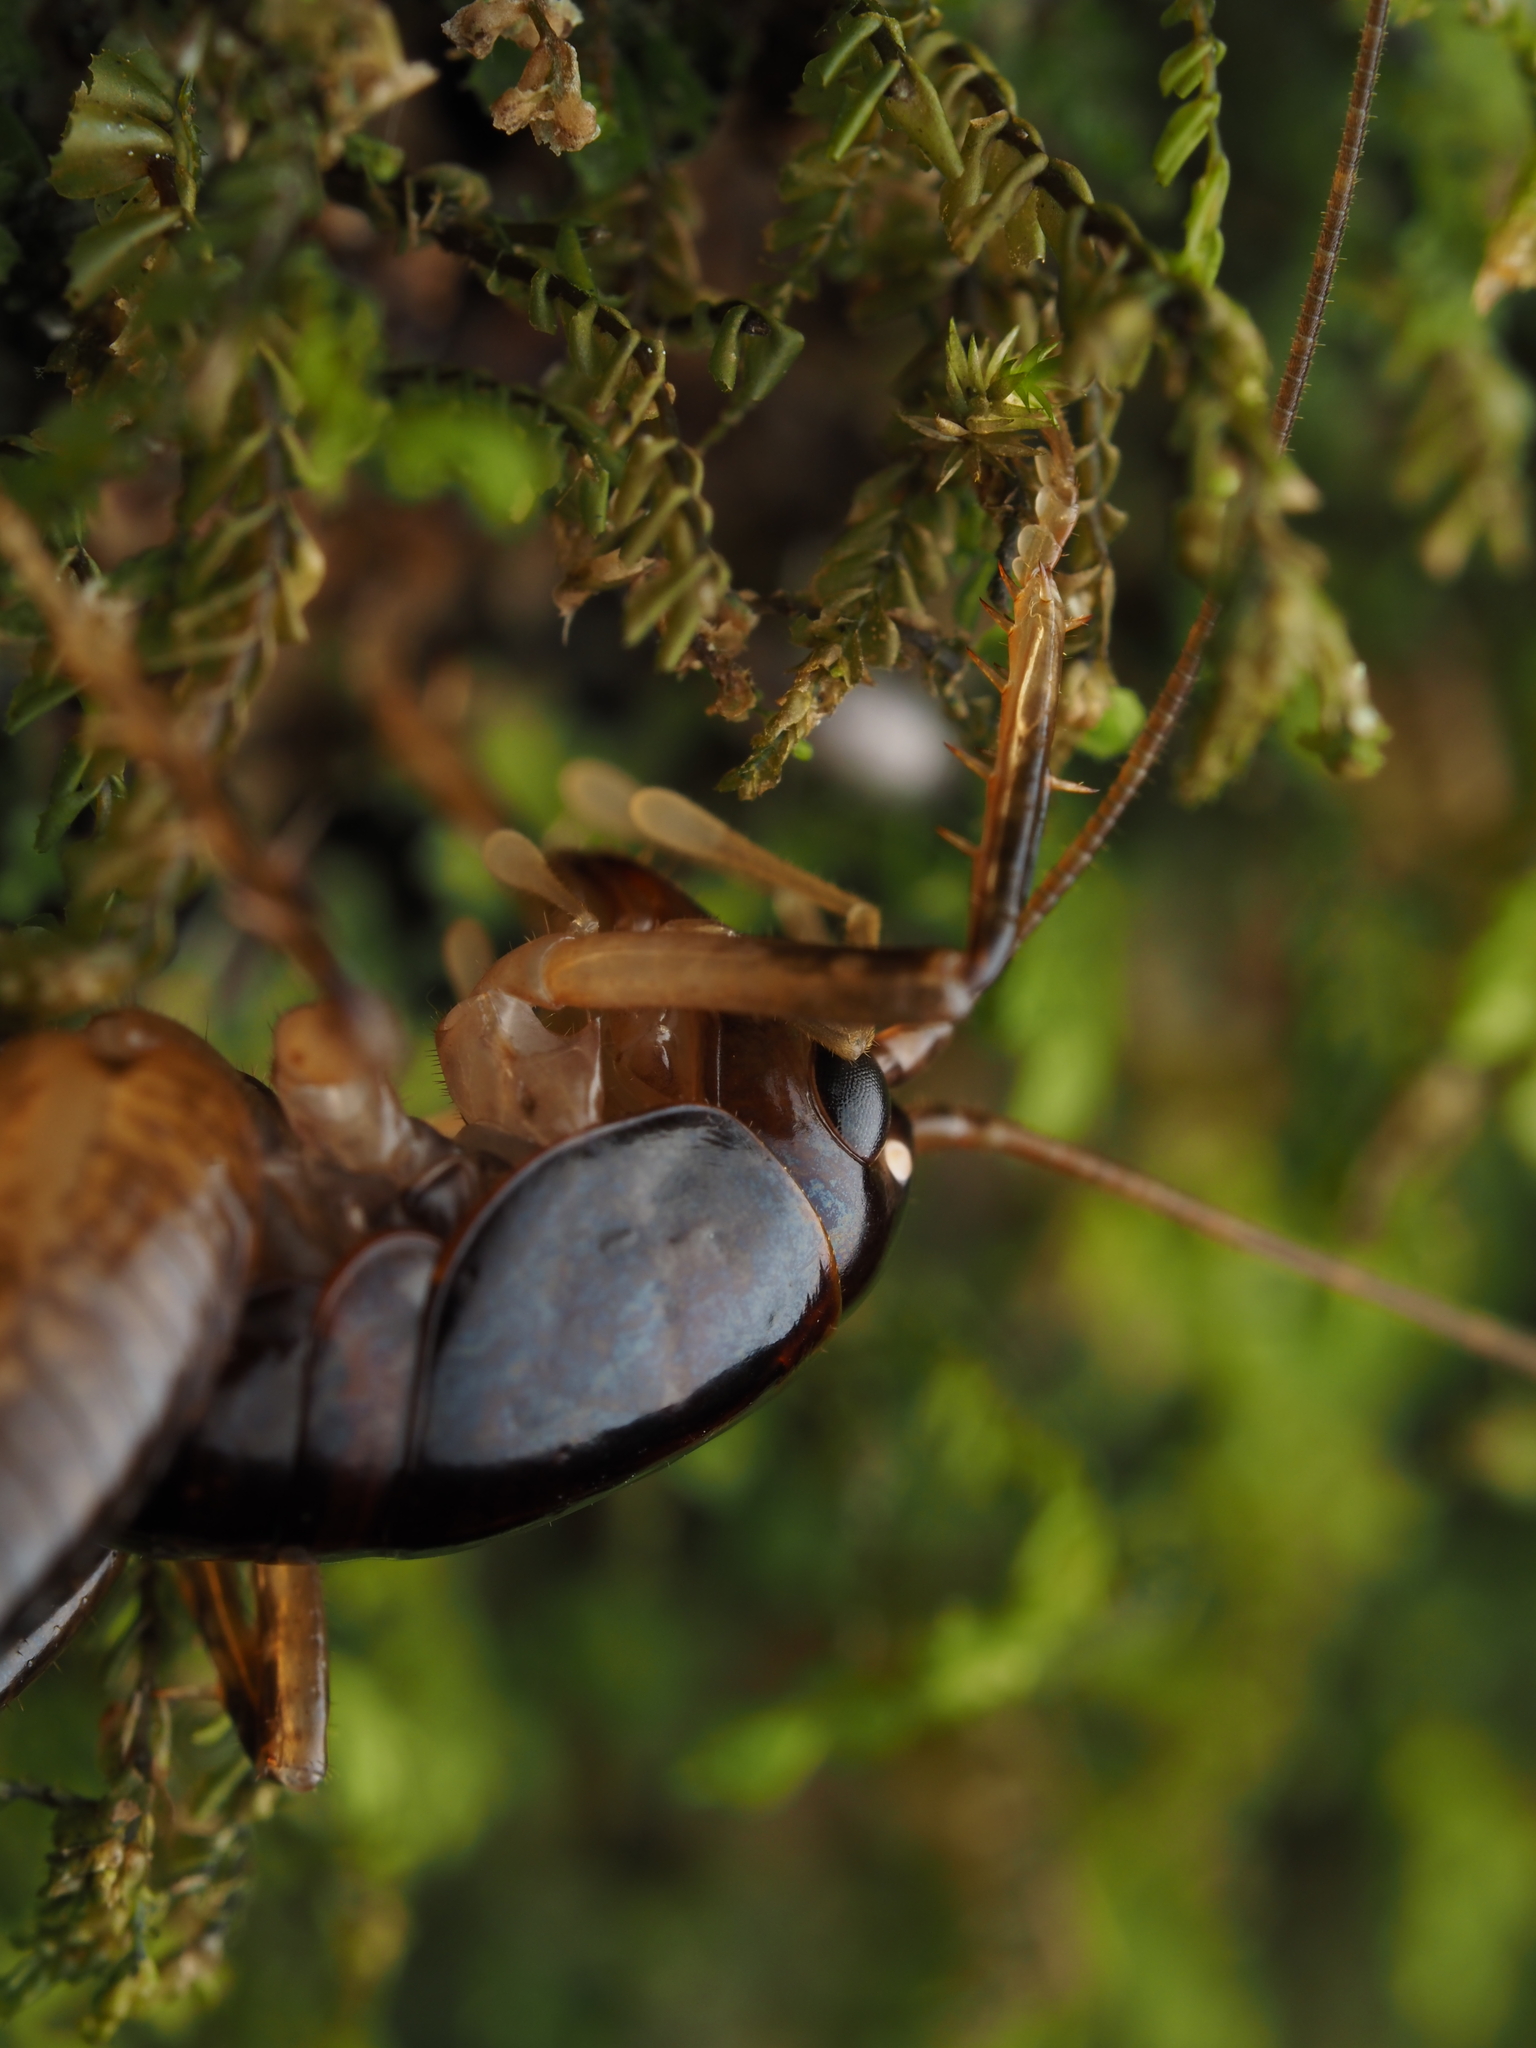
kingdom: Animalia
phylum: Arthropoda
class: Insecta
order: Orthoptera
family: Anostostomatidae
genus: Hemiandrus
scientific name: Hemiandrus nox
